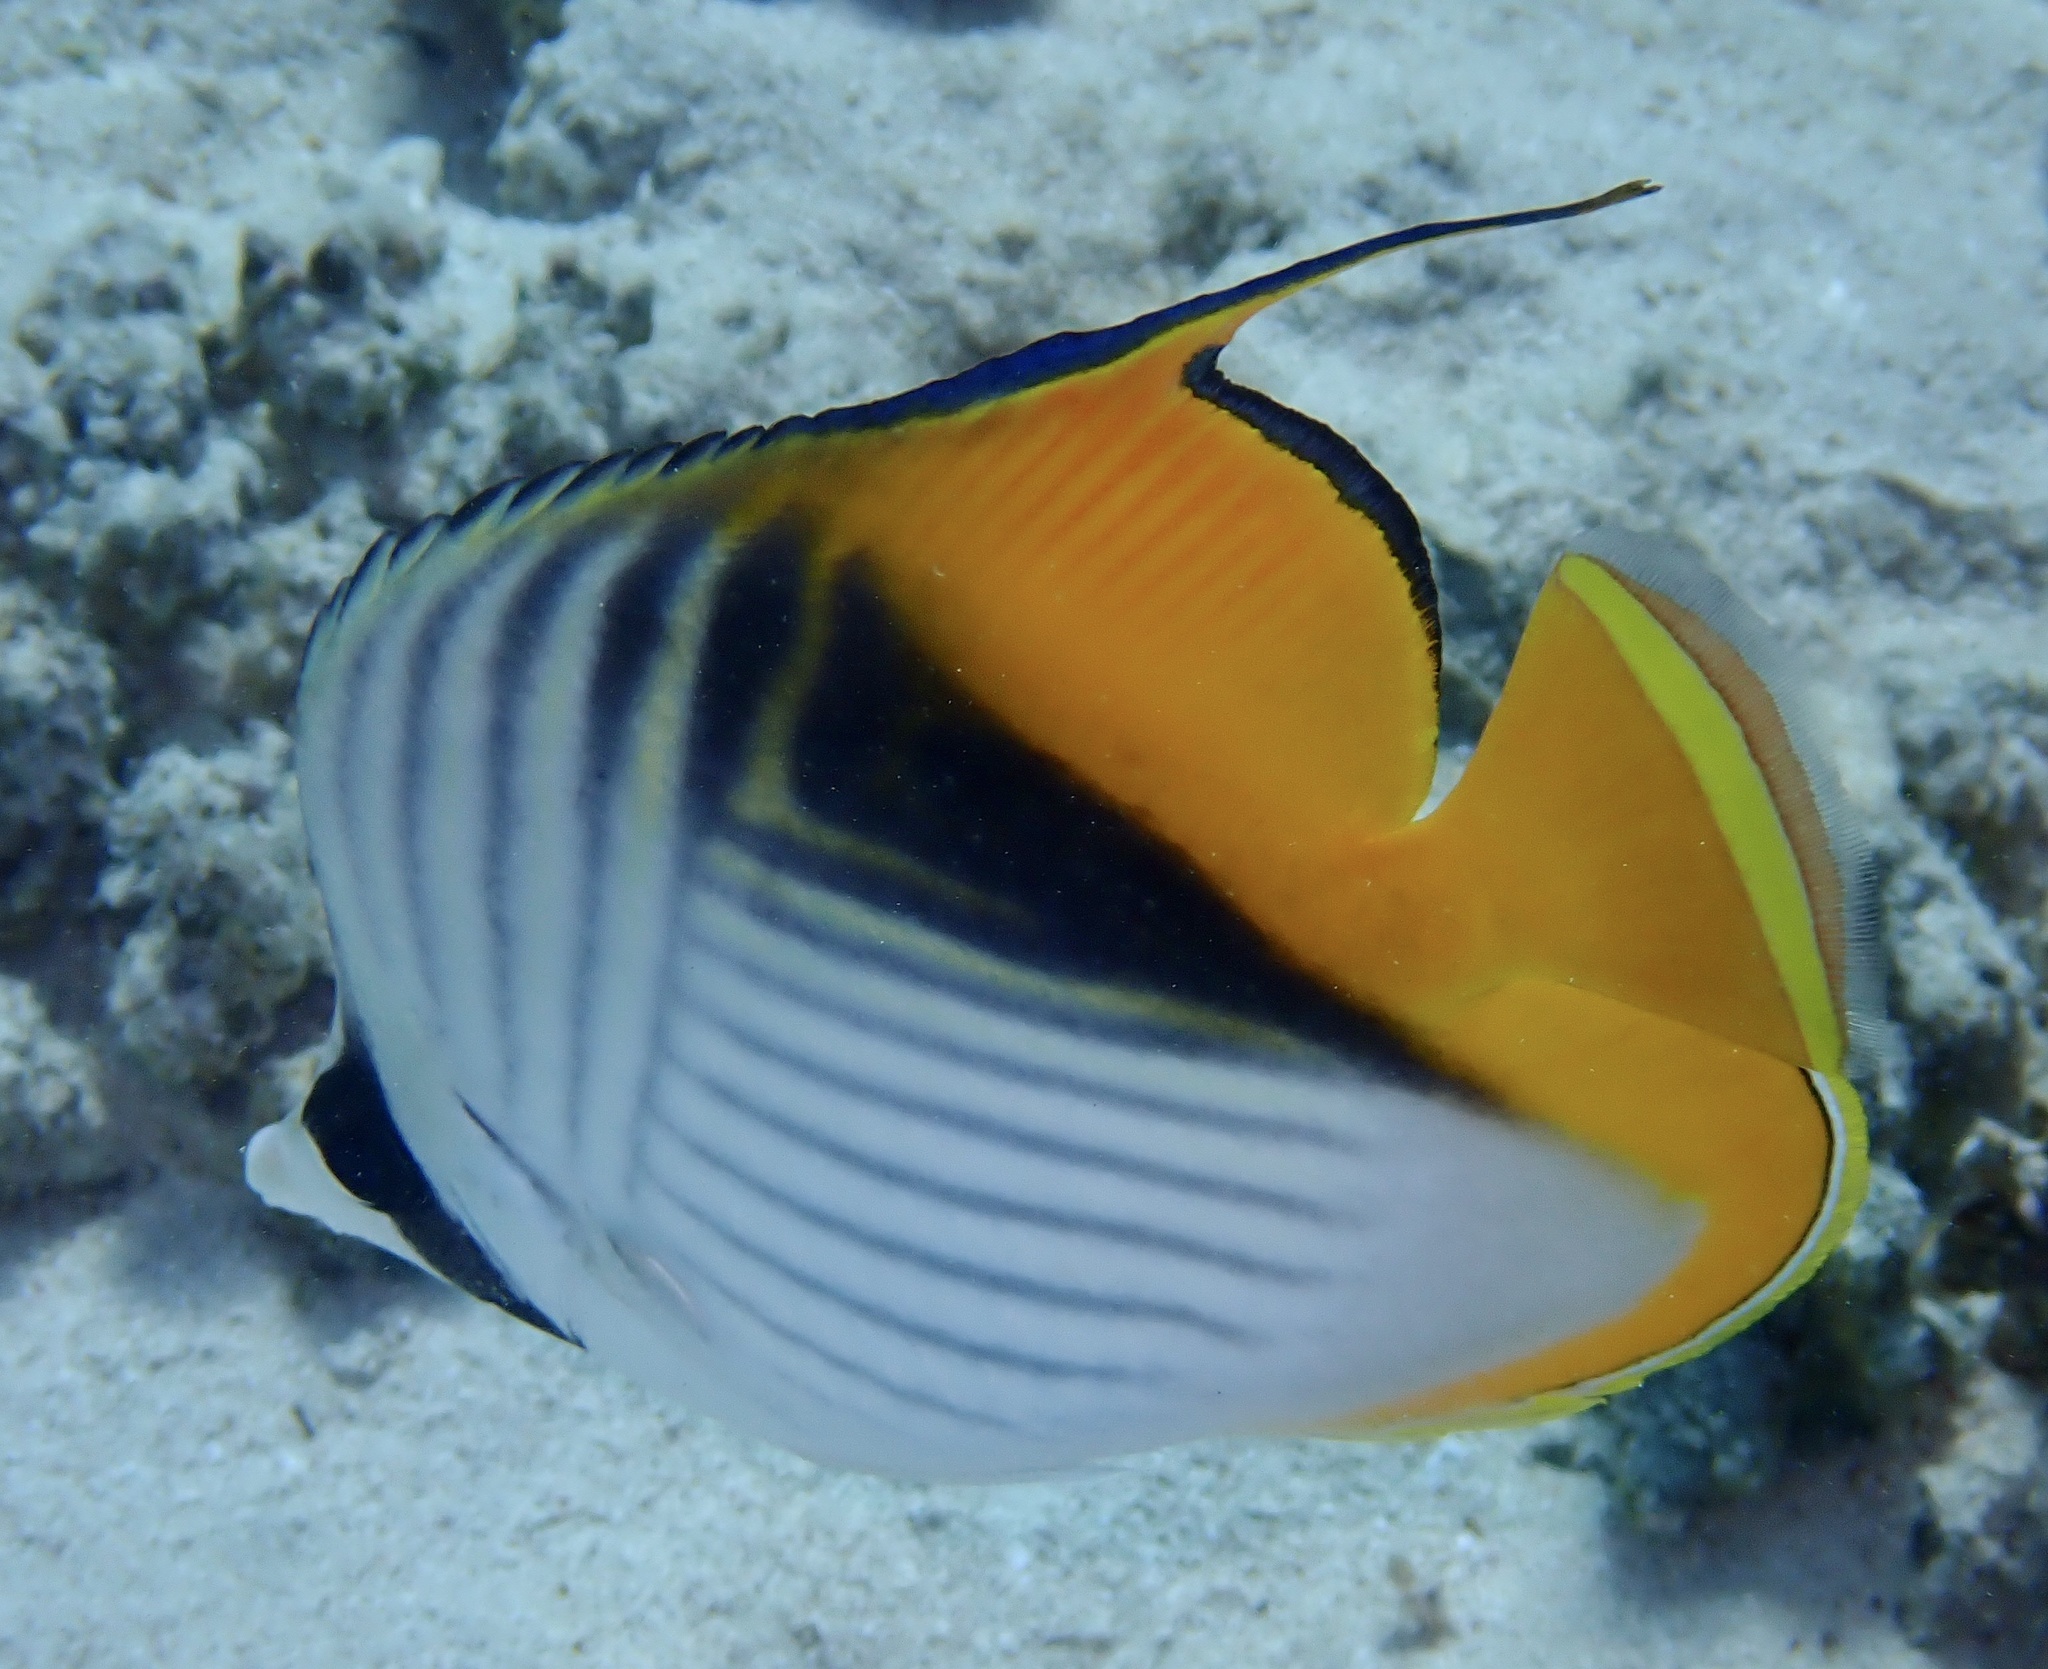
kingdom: Animalia
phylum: Chordata
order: Perciformes
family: Chaetodontidae
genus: Chaetodon
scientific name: Chaetodon auriga
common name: Threadfin butterflyfish
